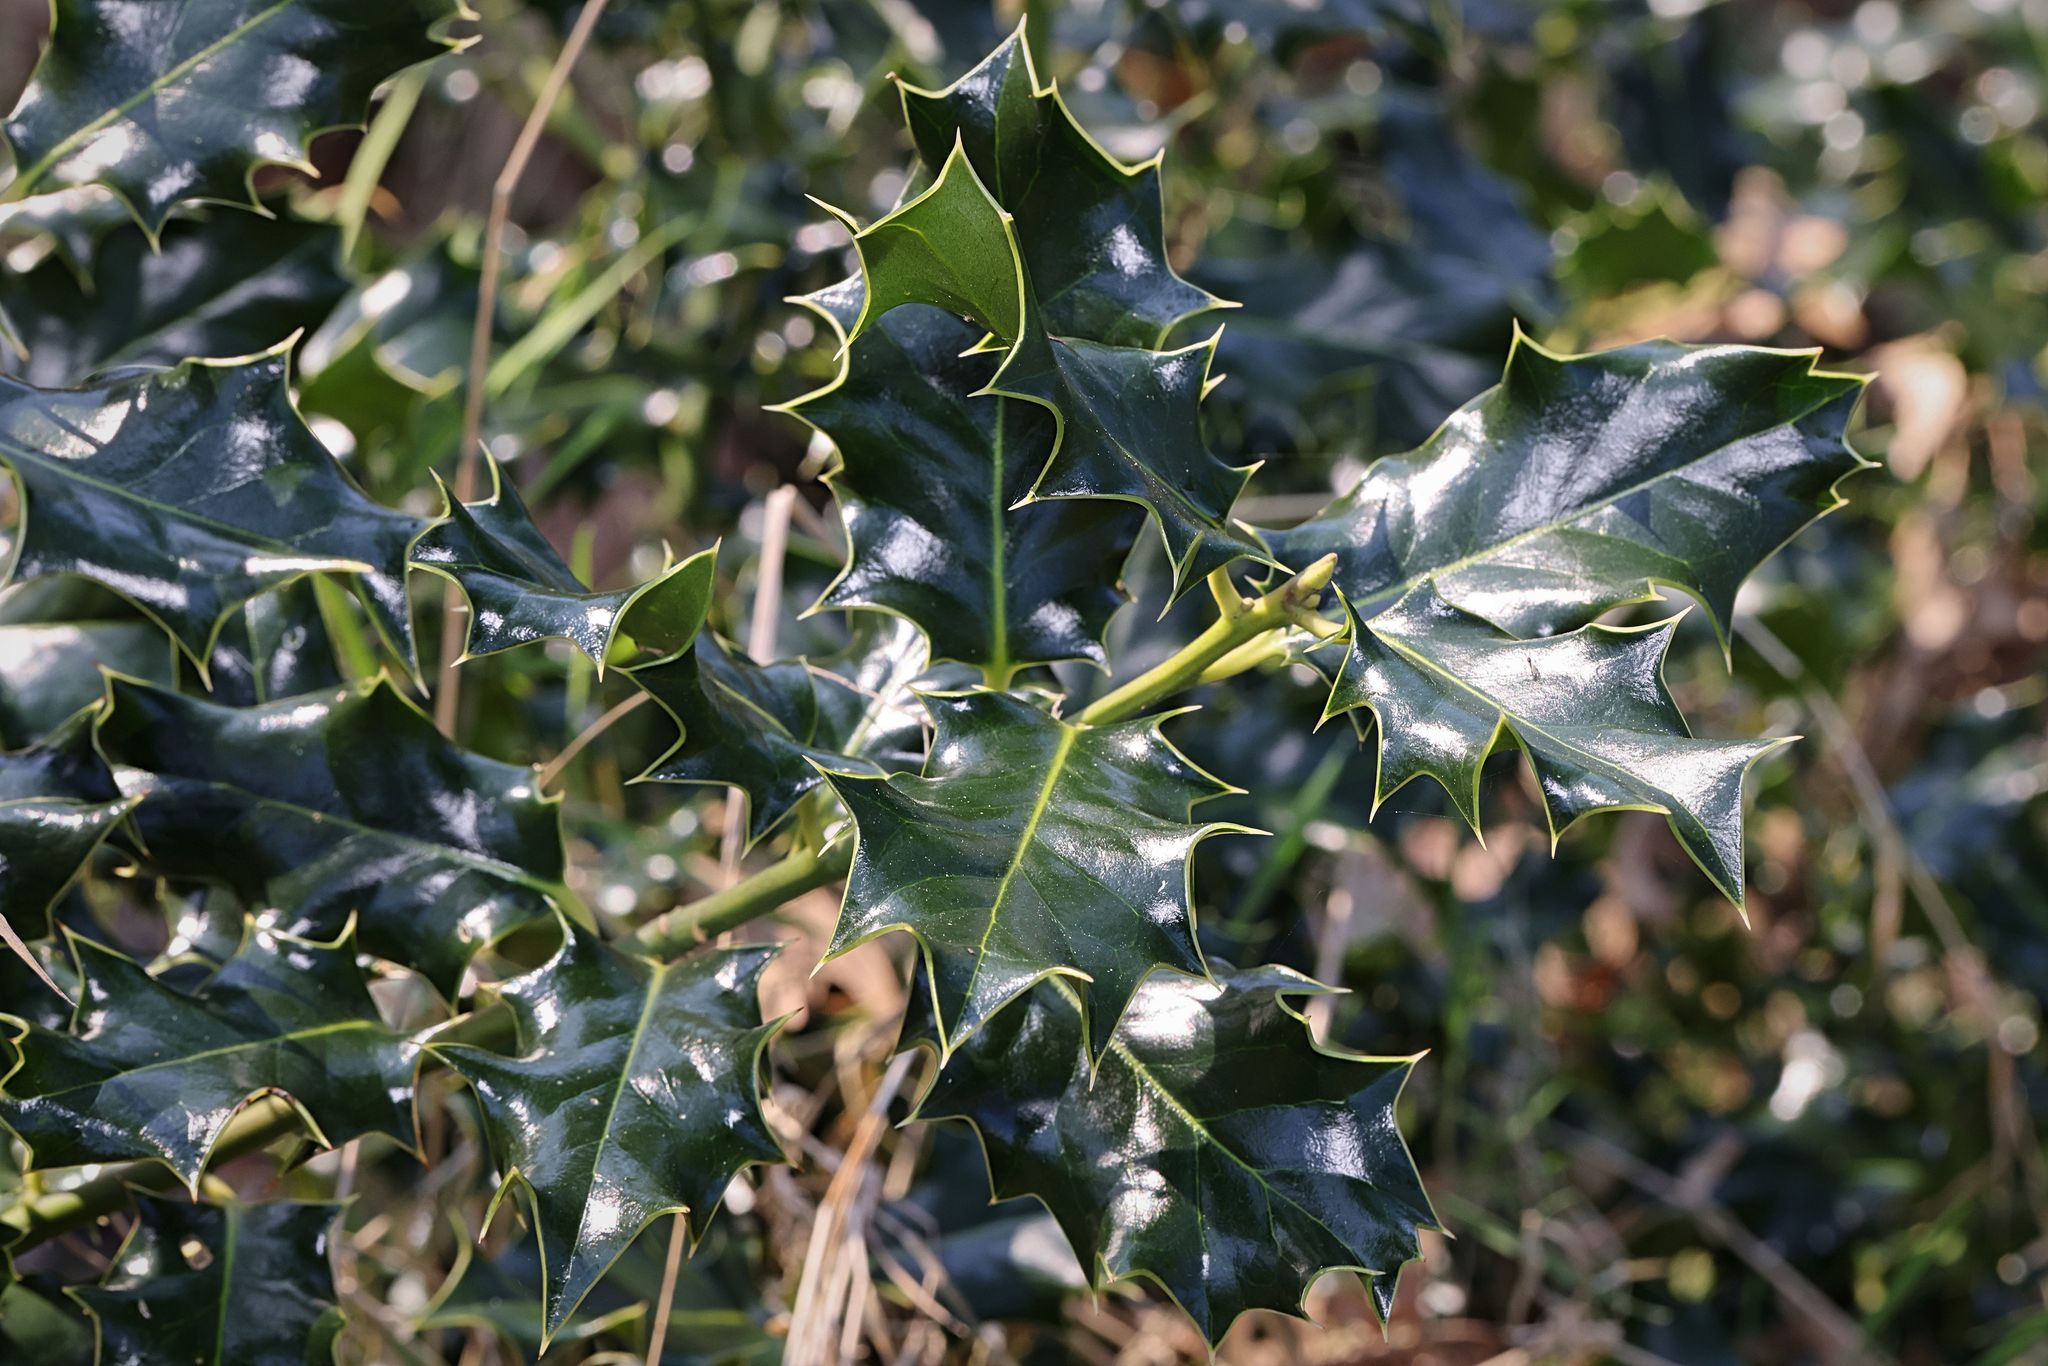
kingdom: Plantae
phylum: Tracheophyta
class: Magnoliopsida
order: Aquifoliales
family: Aquifoliaceae
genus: Ilex
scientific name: Ilex aquifolium
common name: English holly
